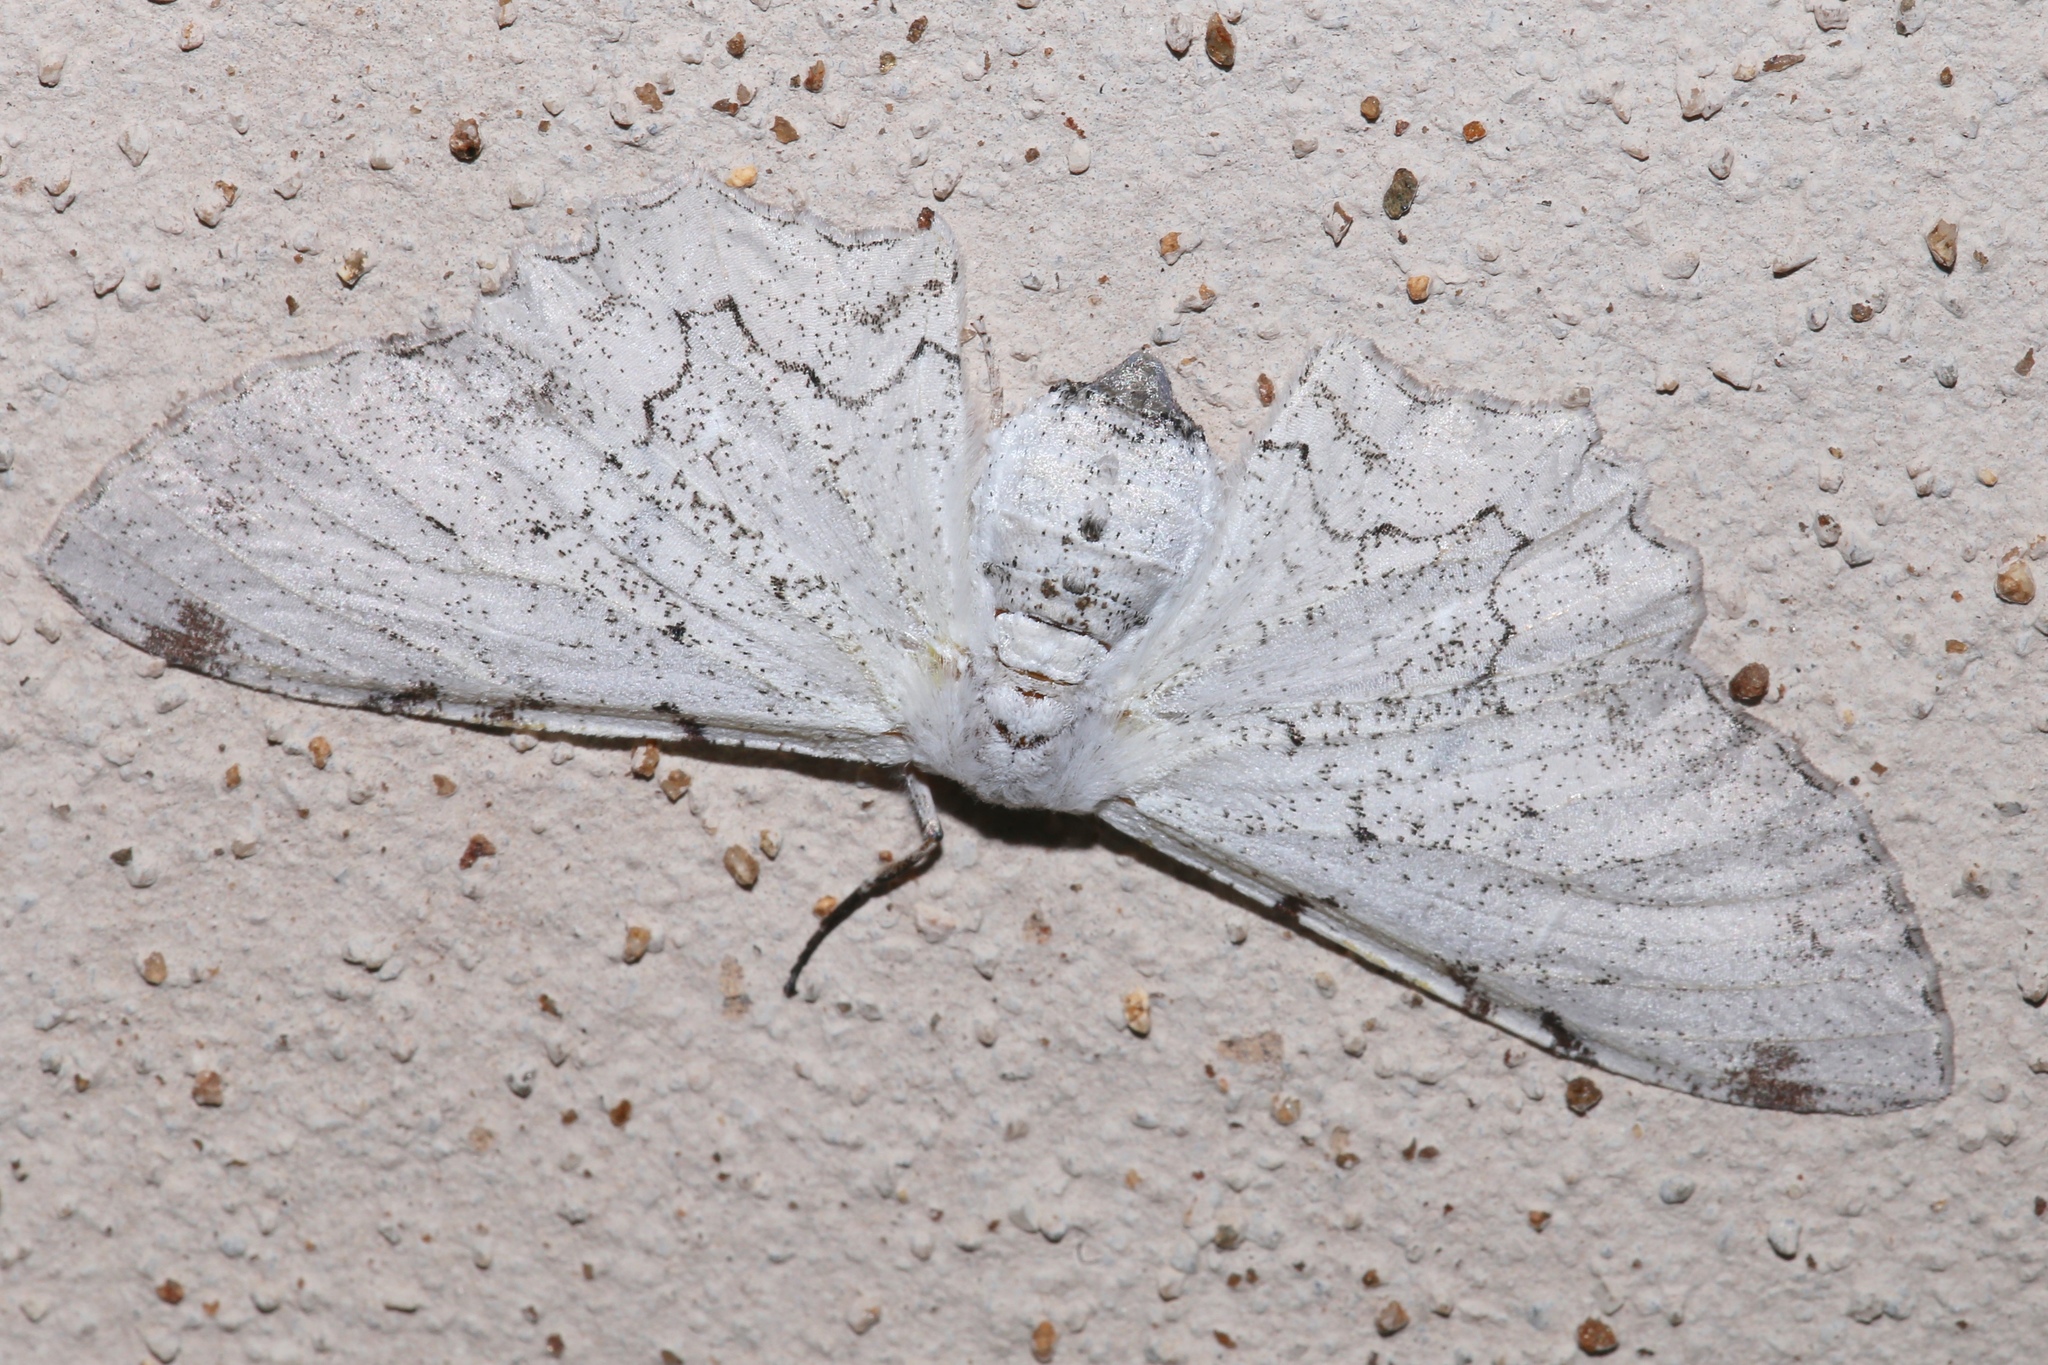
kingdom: Animalia
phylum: Arthropoda
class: Insecta
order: Lepidoptera
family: Geometridae
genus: Thyrinteina
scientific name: Thyrinteina arnobia
